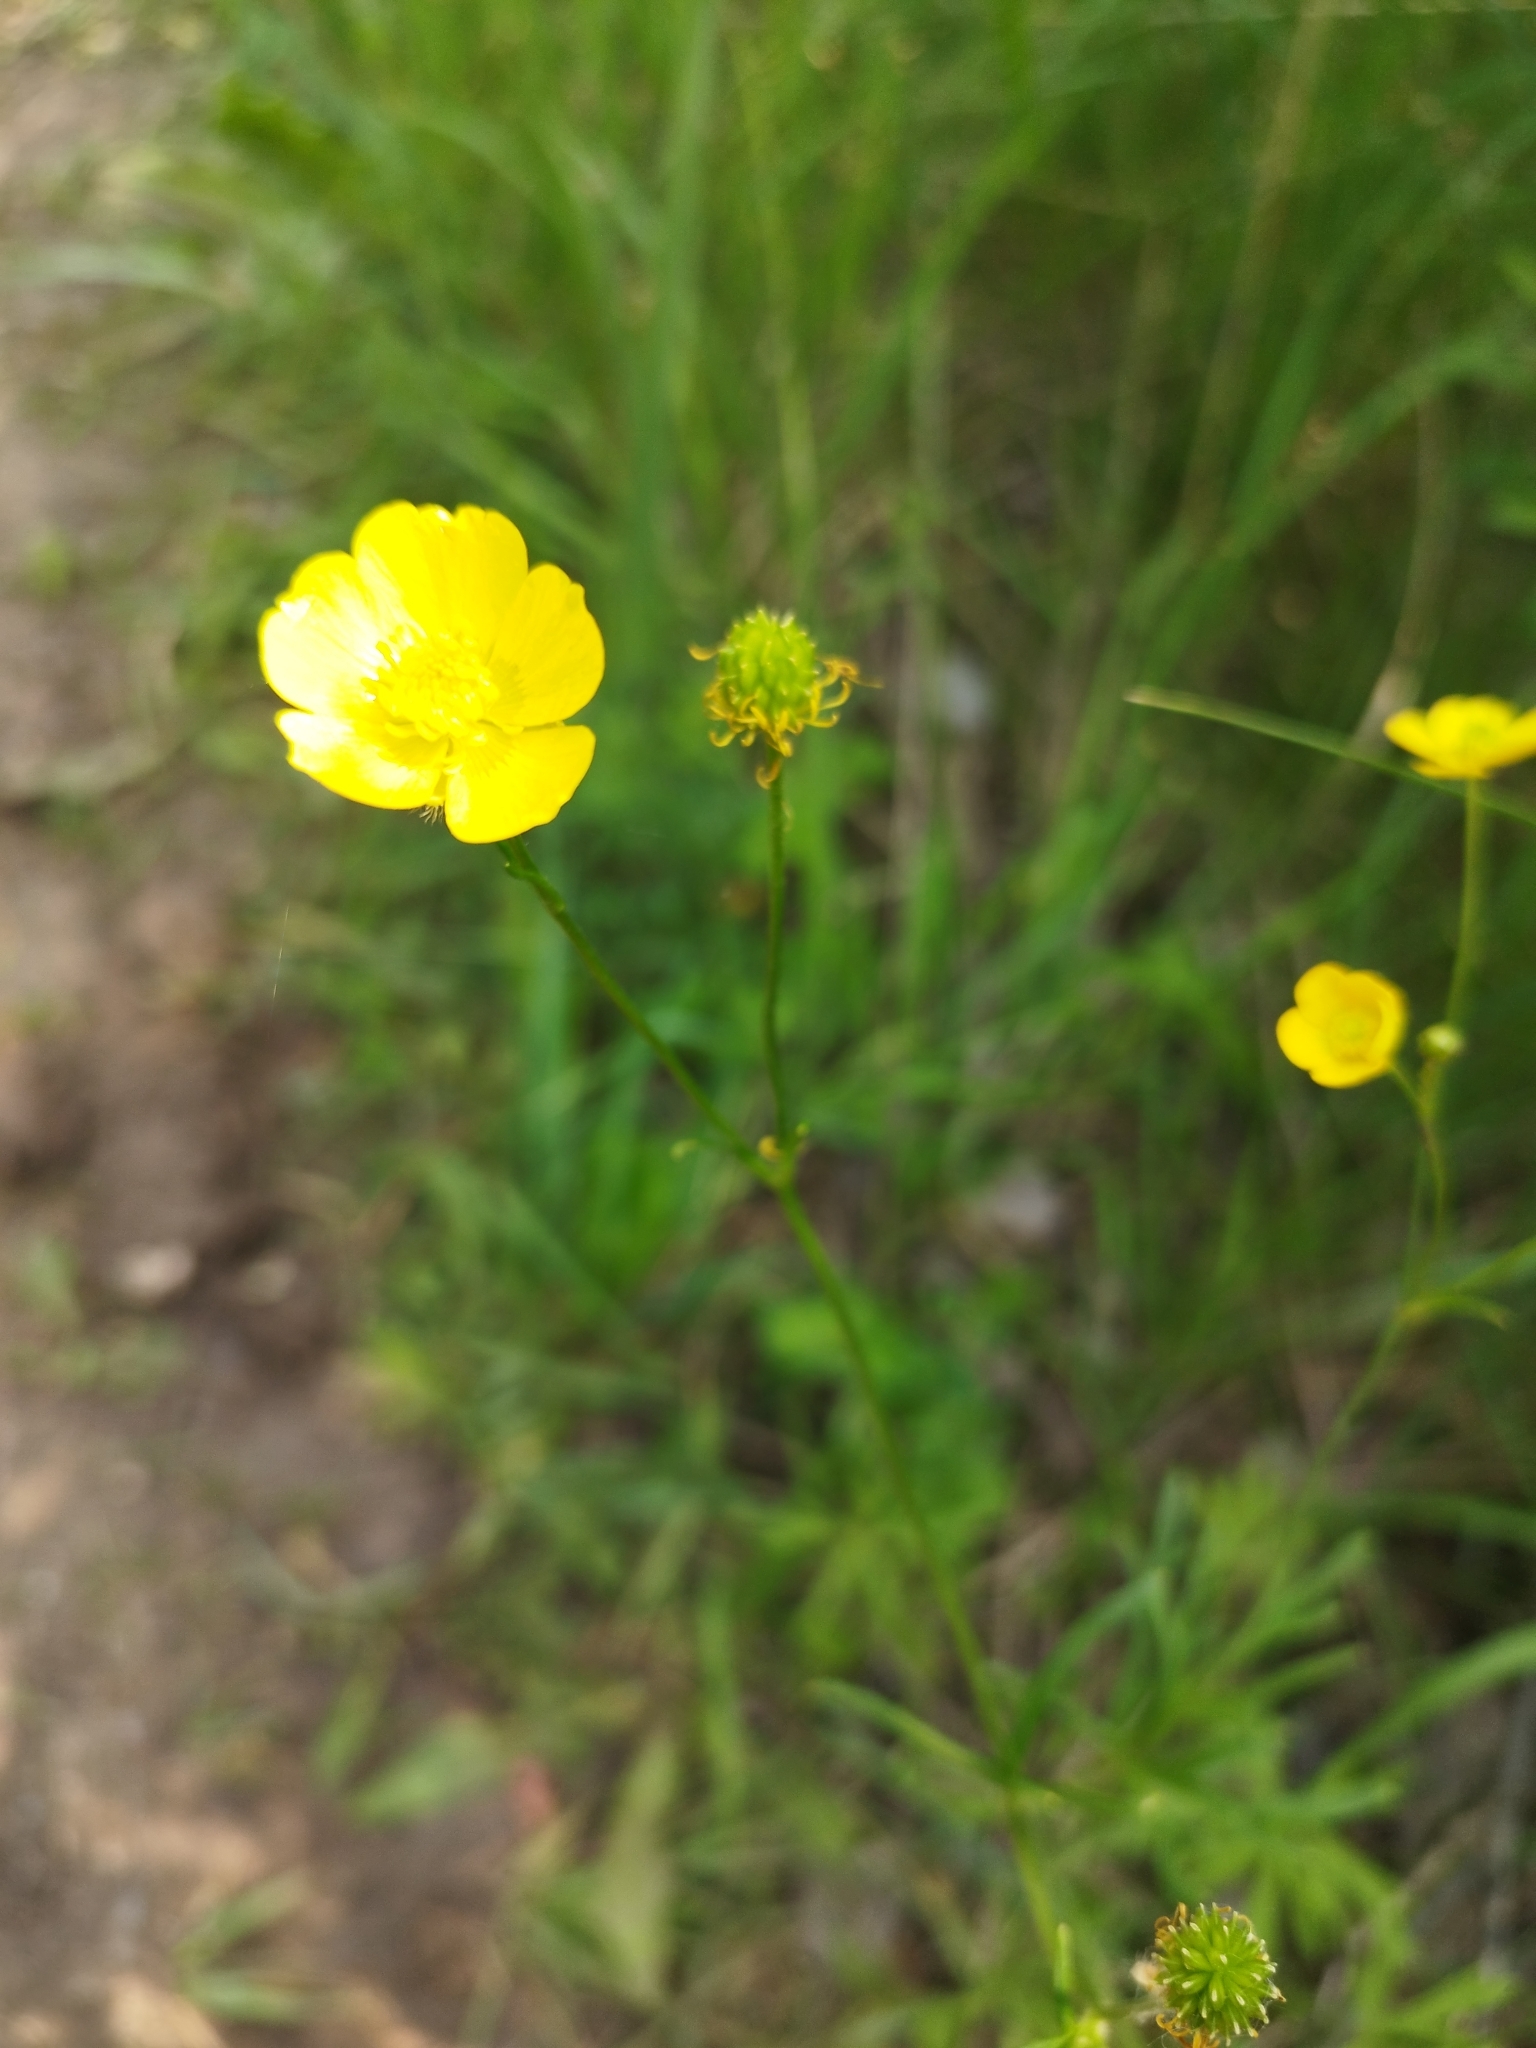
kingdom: Plantae
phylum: Tracheophyta
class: Magnoliopsida
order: Ranunculales
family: Ranunculaceae
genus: Ranunculus
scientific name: Ranunculus polyanthemos
